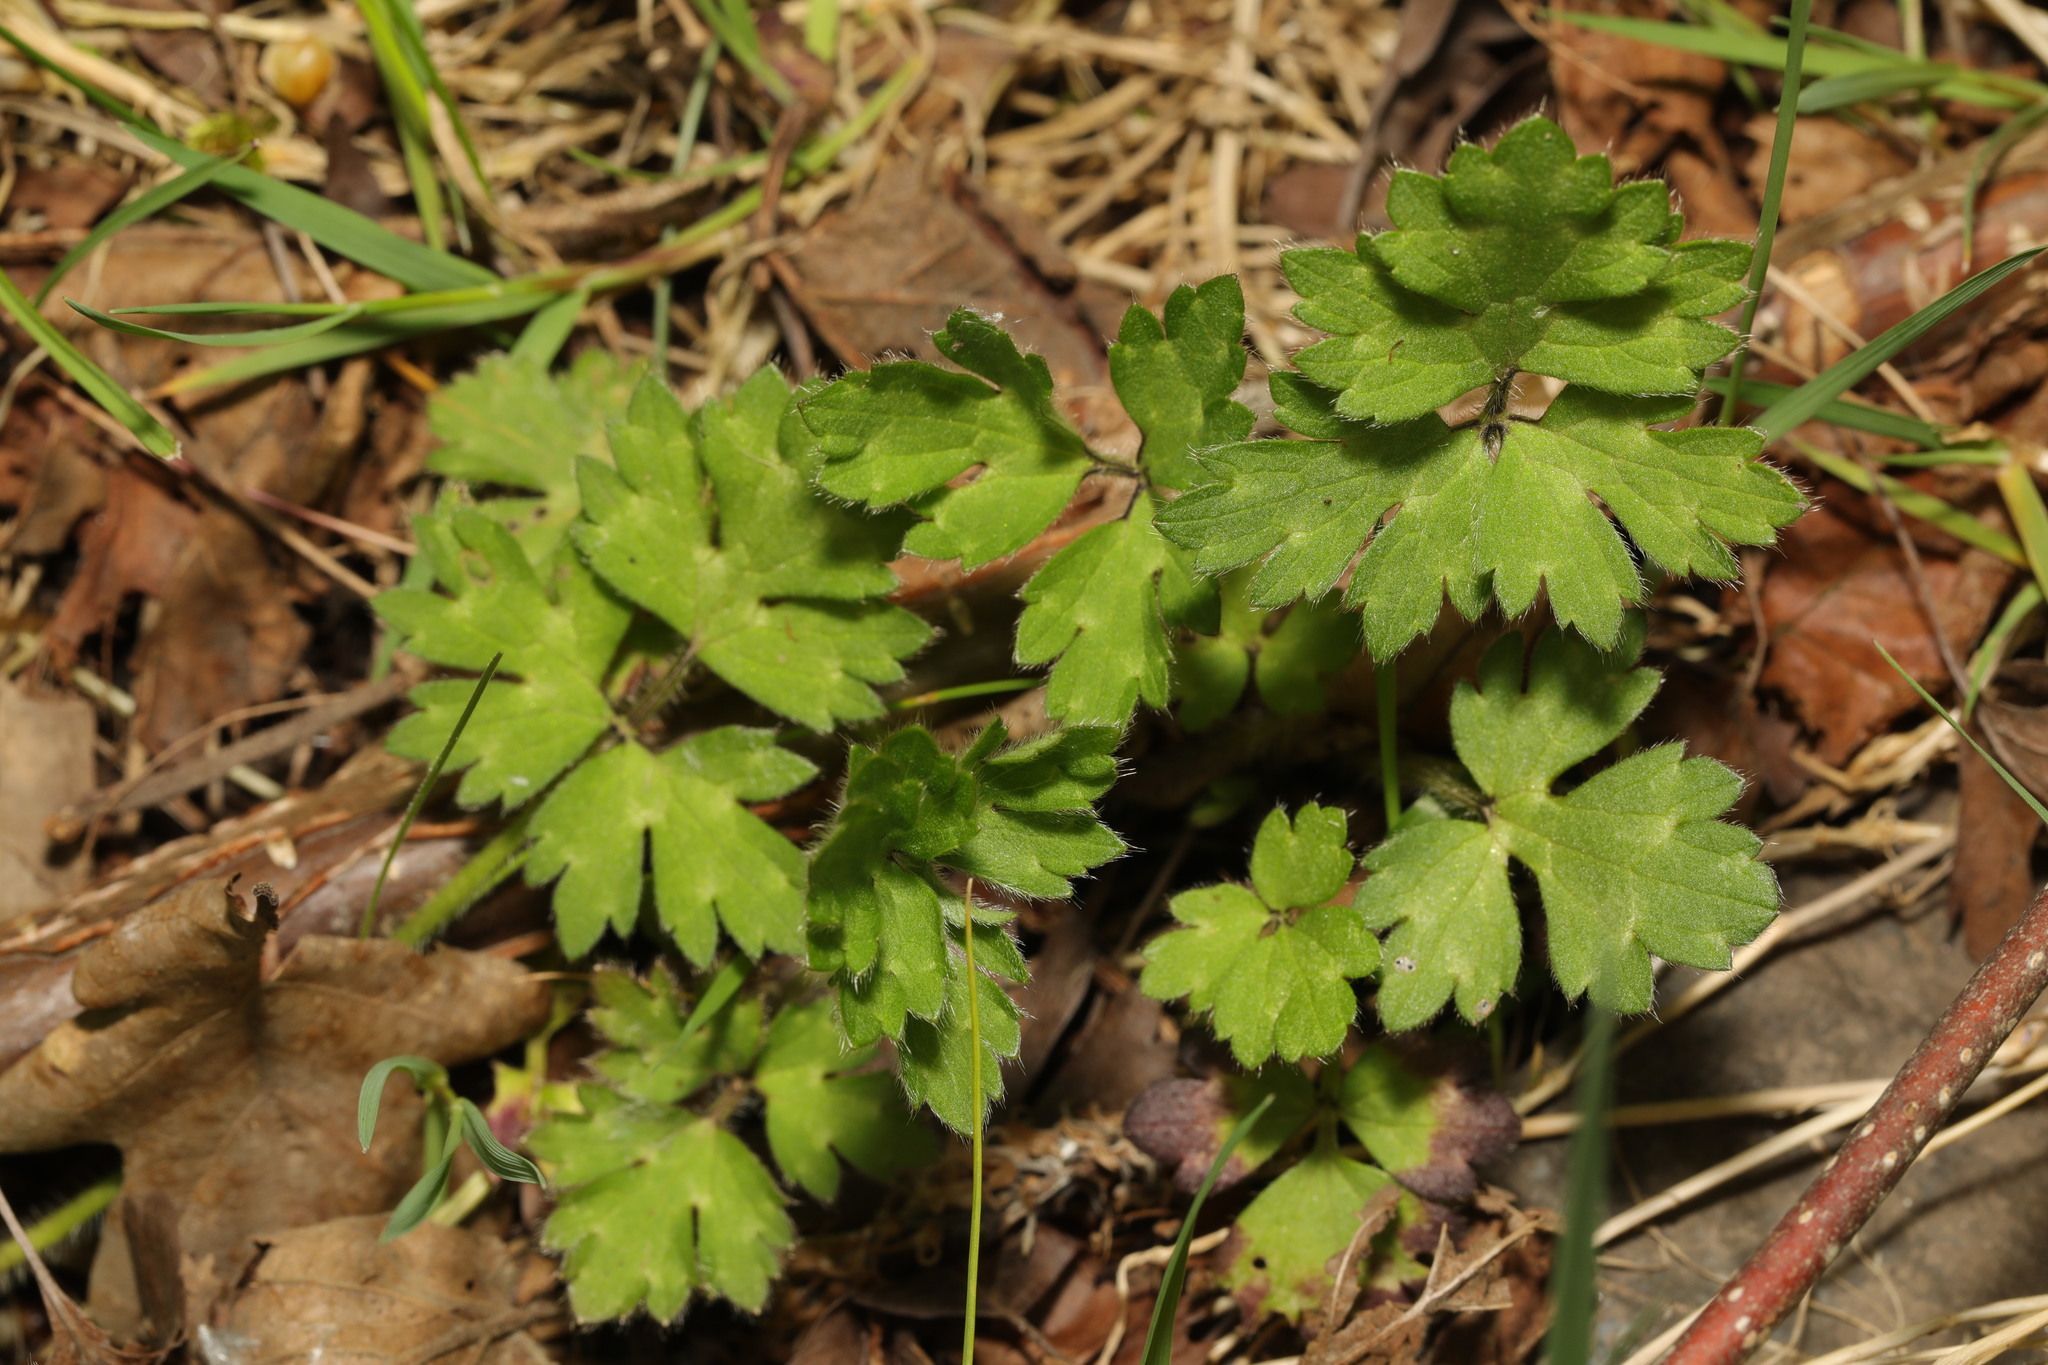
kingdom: Plantae
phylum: Tracheophyta
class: Magnoliopsida
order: Ranunculales
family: Ranunculaceae
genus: Ranunculus
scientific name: Ranunculus repens
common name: Creeping buttercup
